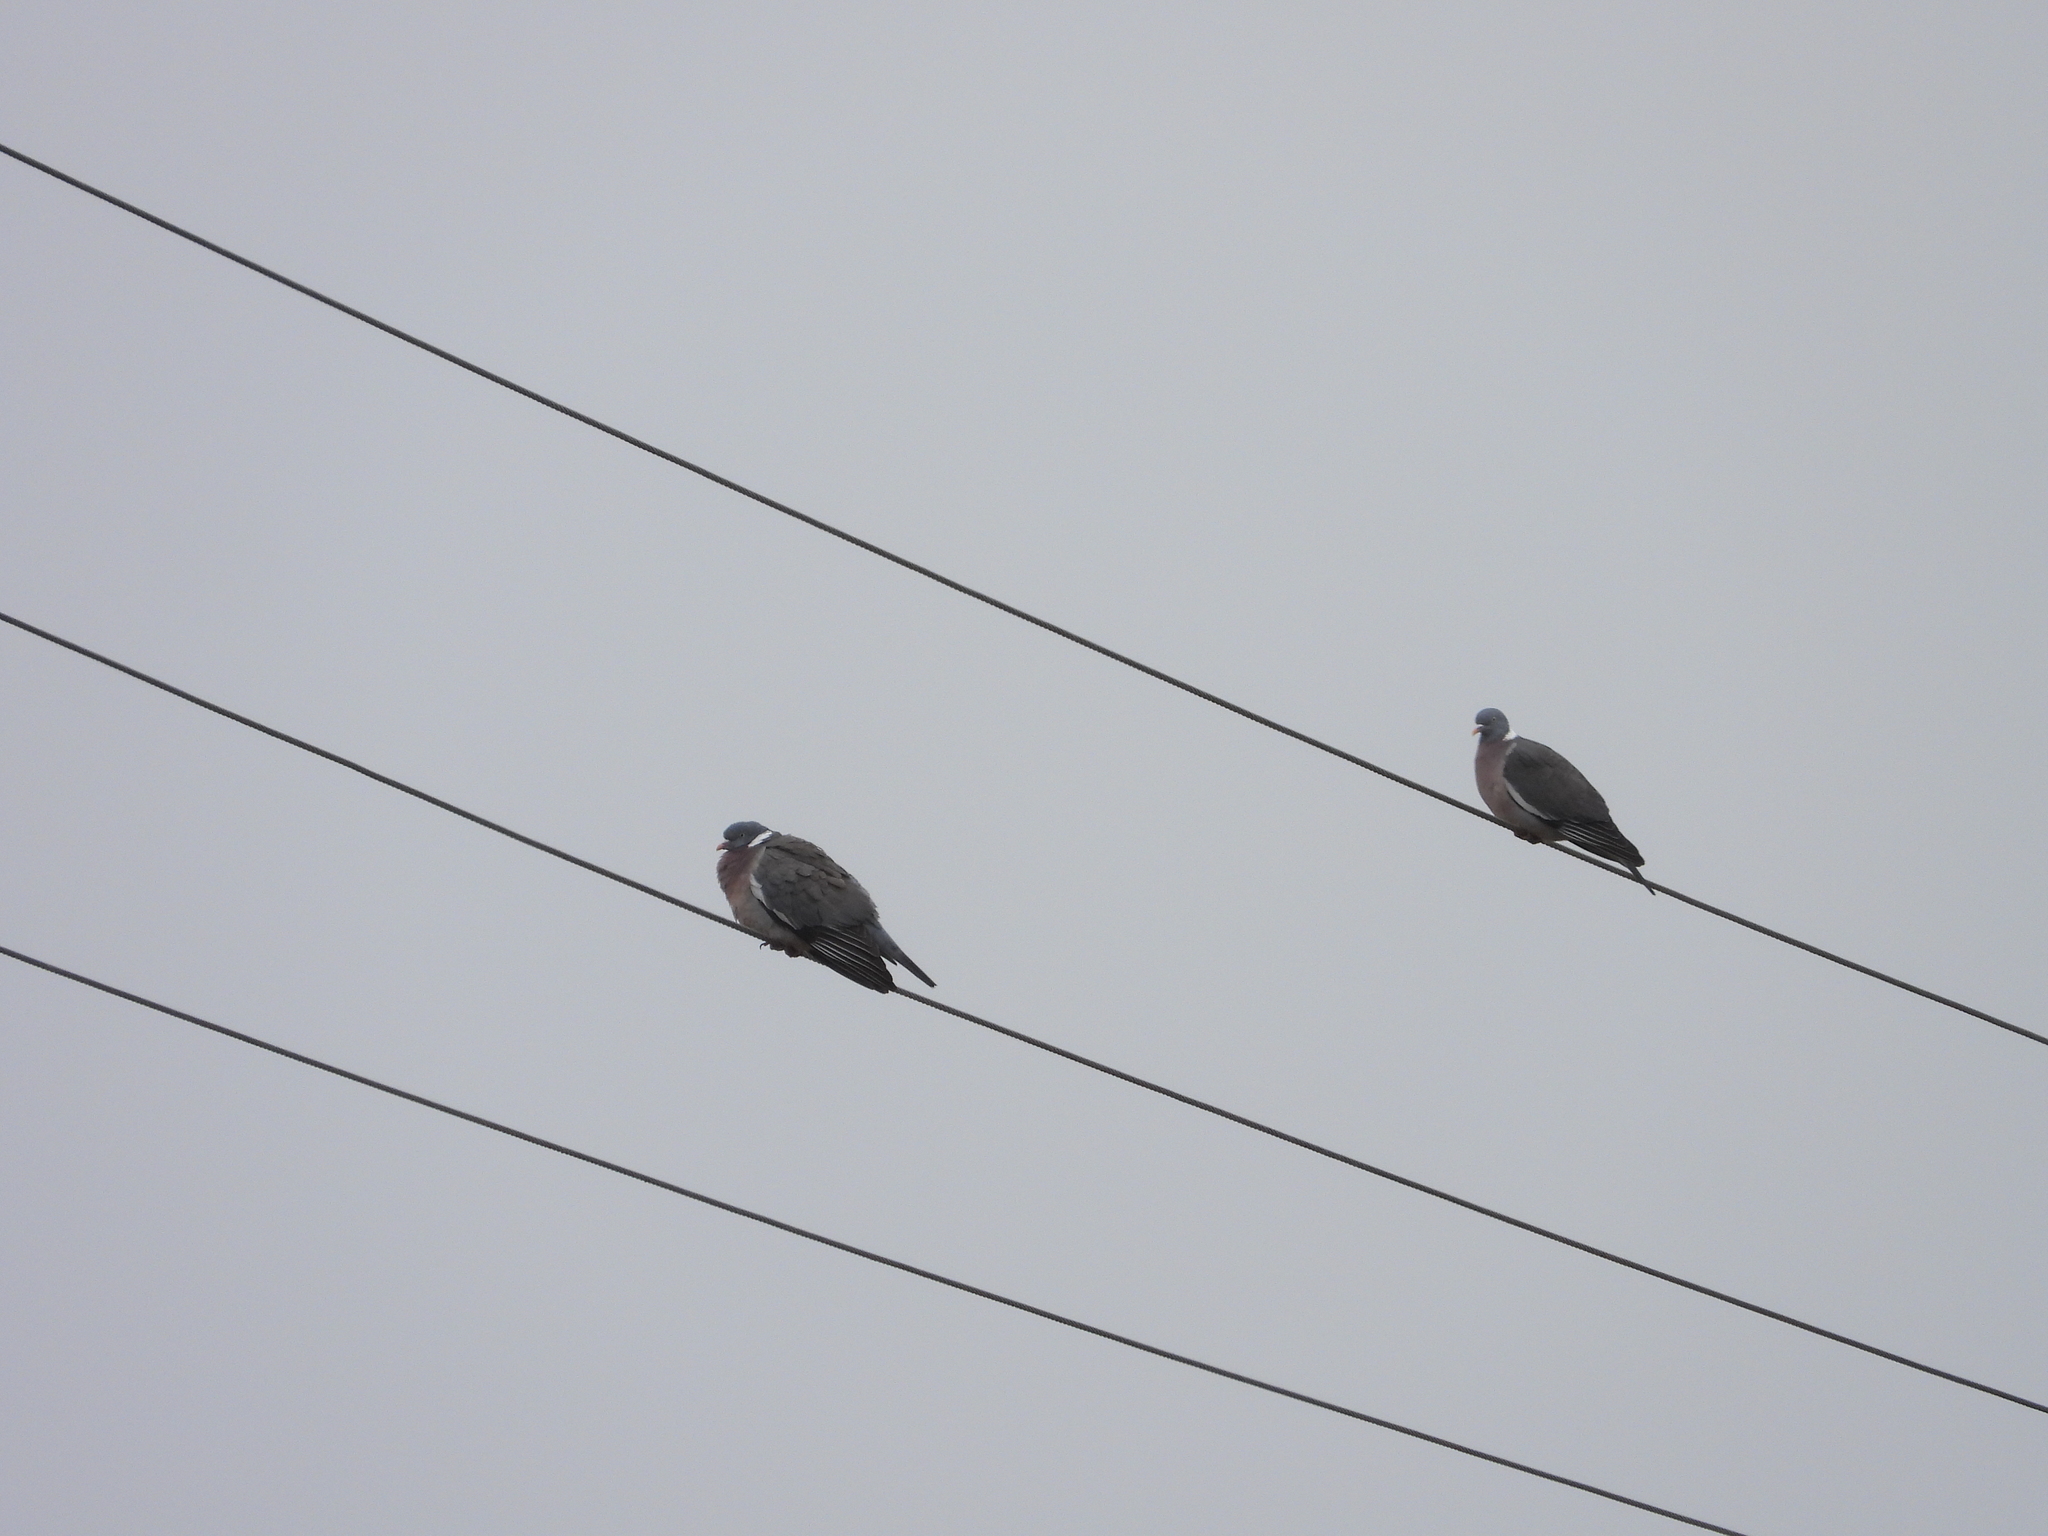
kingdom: Animalia
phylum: Chordata
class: Aves
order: Columbiformes
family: Columbidae
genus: Columba
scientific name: Columba palumbus
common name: Common wood pigeon
